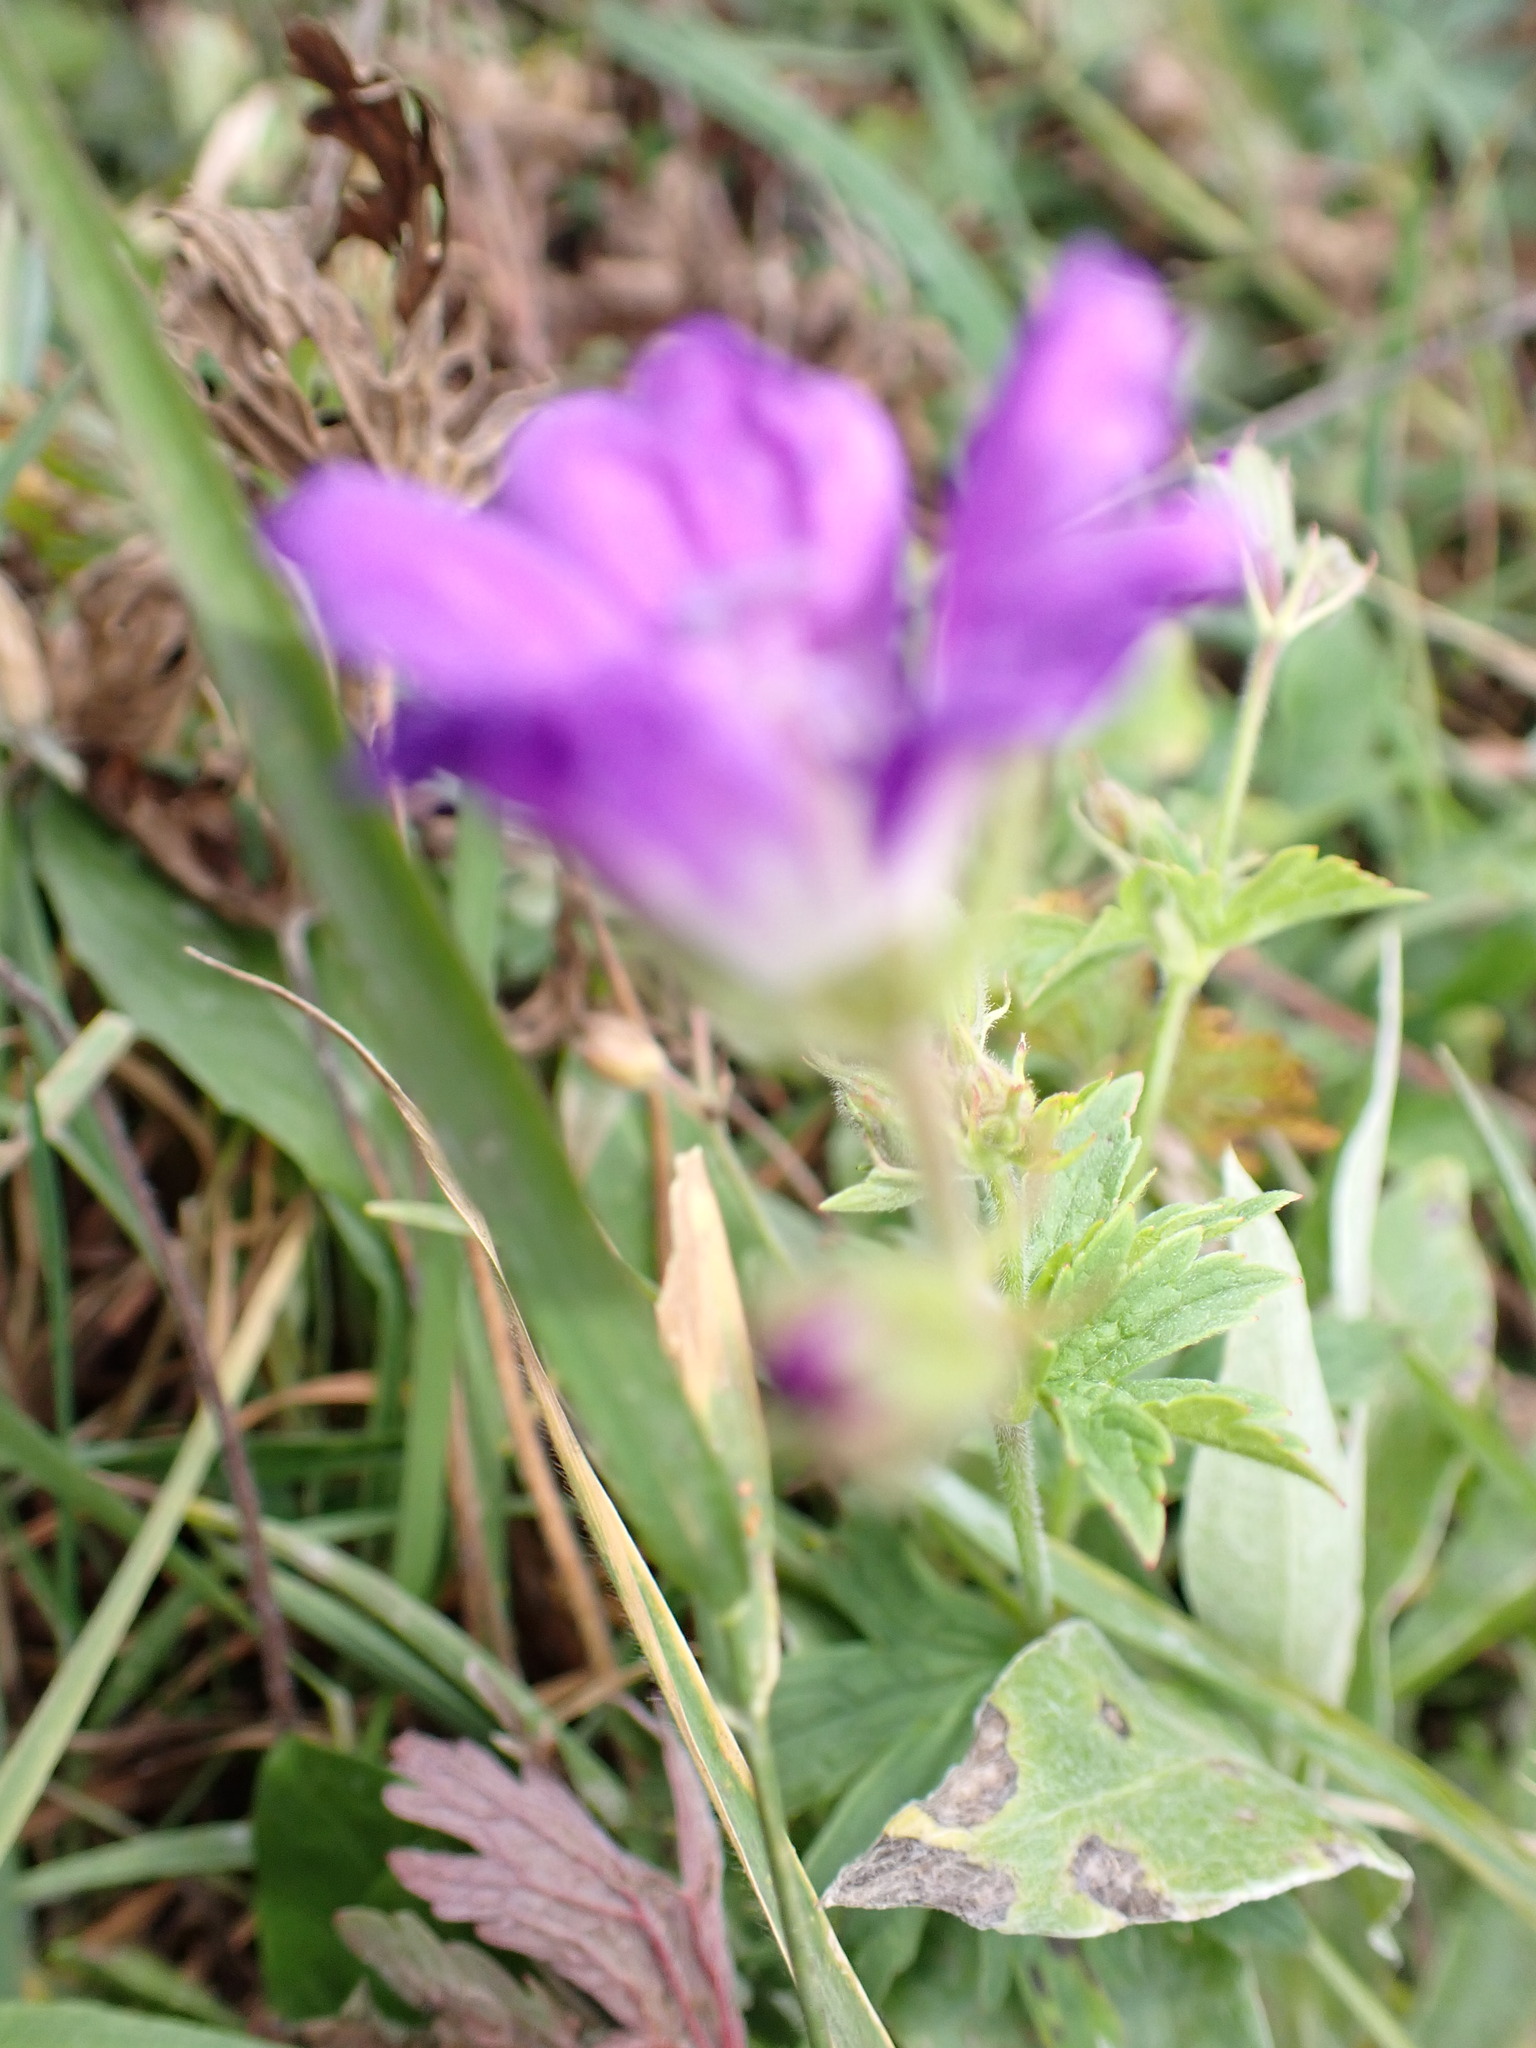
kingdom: Plantae
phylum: Tracheophyta
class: Magnoliopsida
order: Geraniales
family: Geraniaceae
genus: Geranium
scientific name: Geranium sylvaticum
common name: Wood crane's-bill
